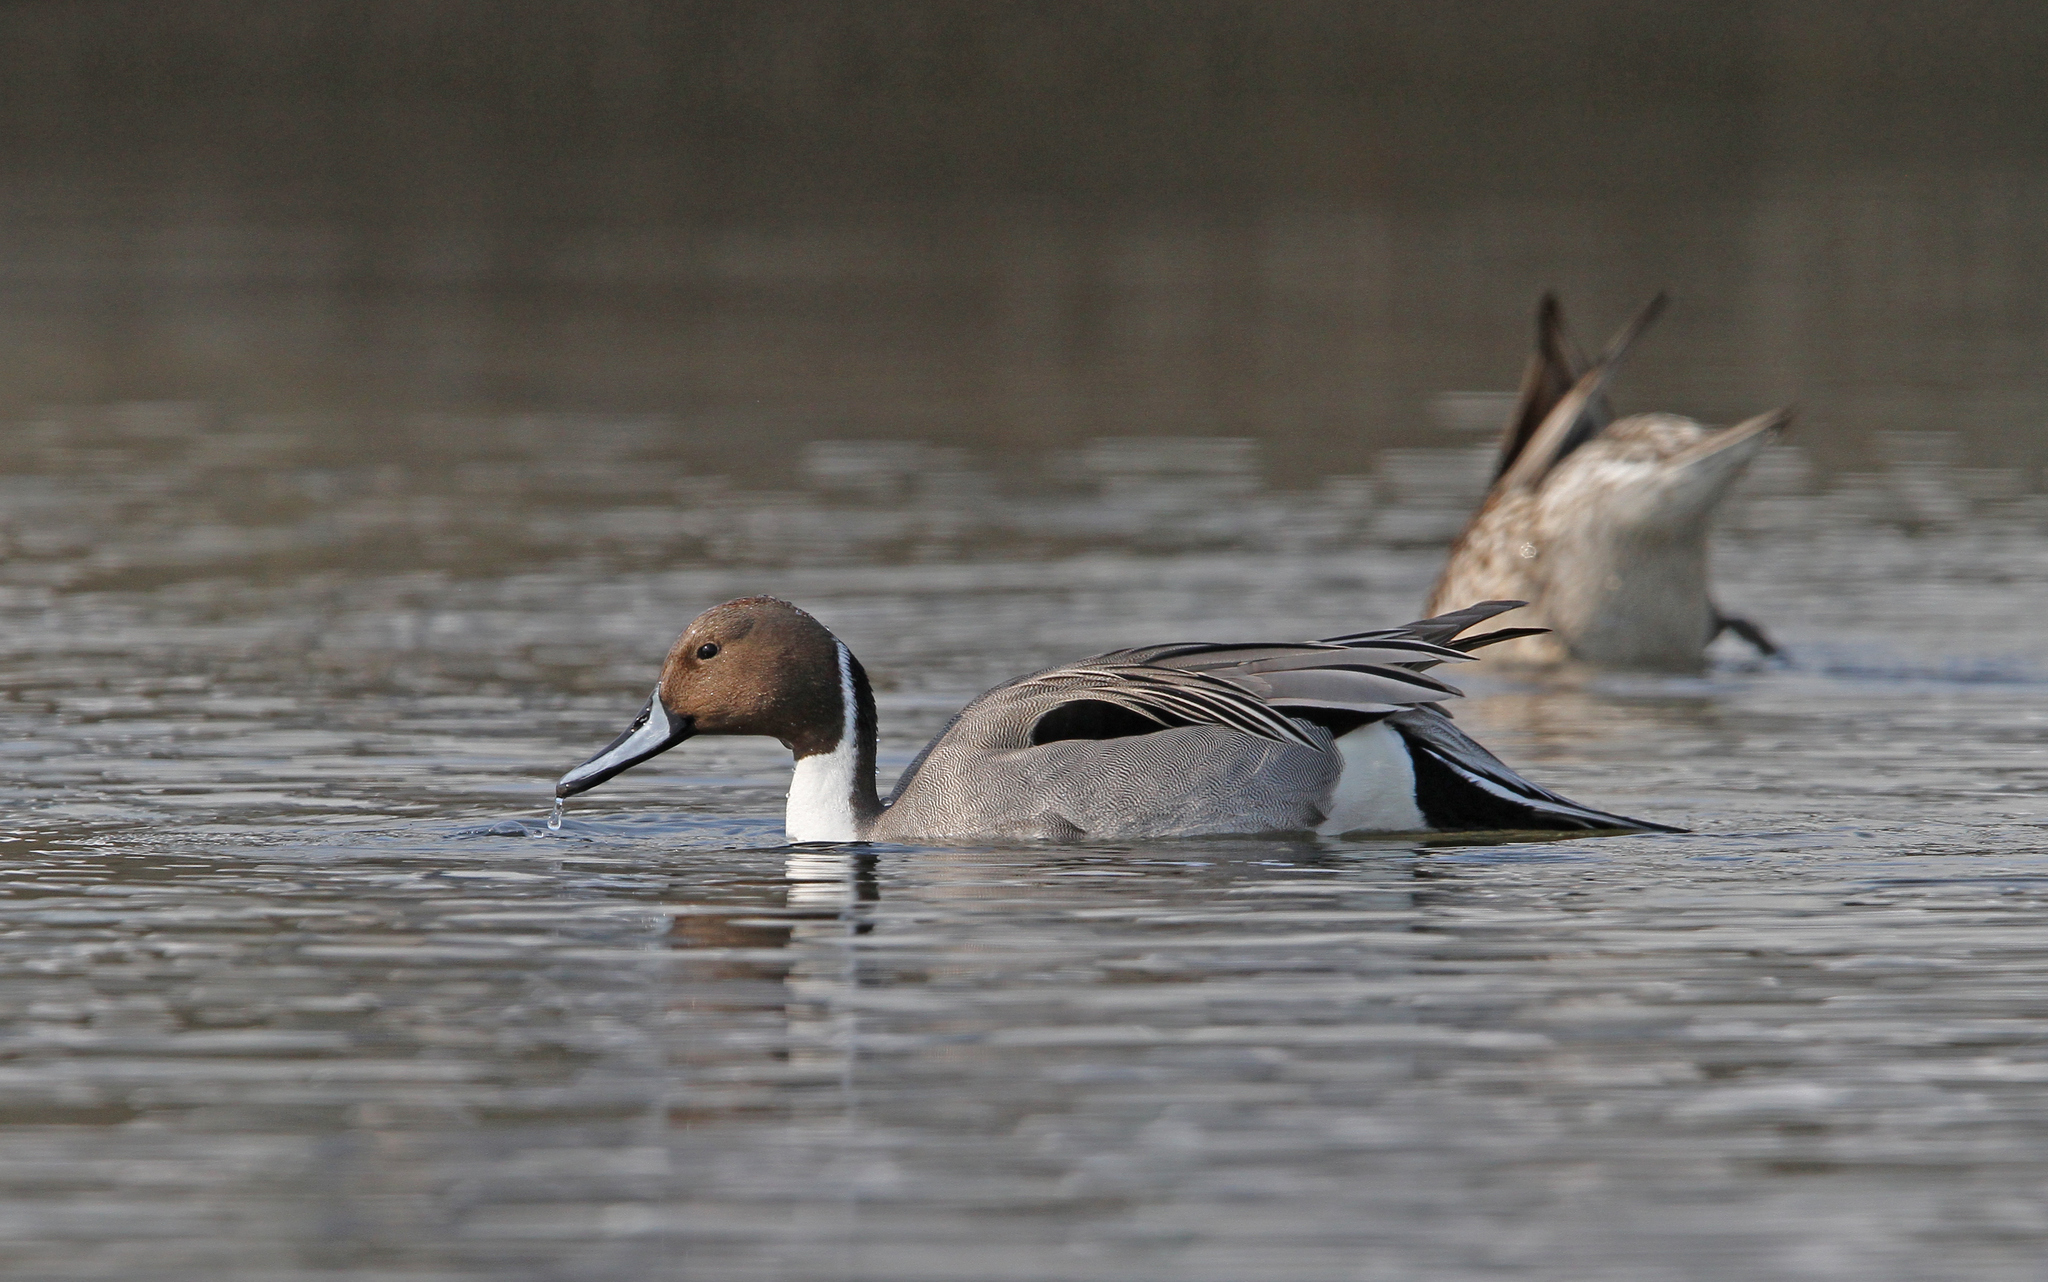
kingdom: Animalia
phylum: Chordata
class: Aves
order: Anseriformes
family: Anatidae
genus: Anas
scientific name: Anas acuta
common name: Northern pintail
